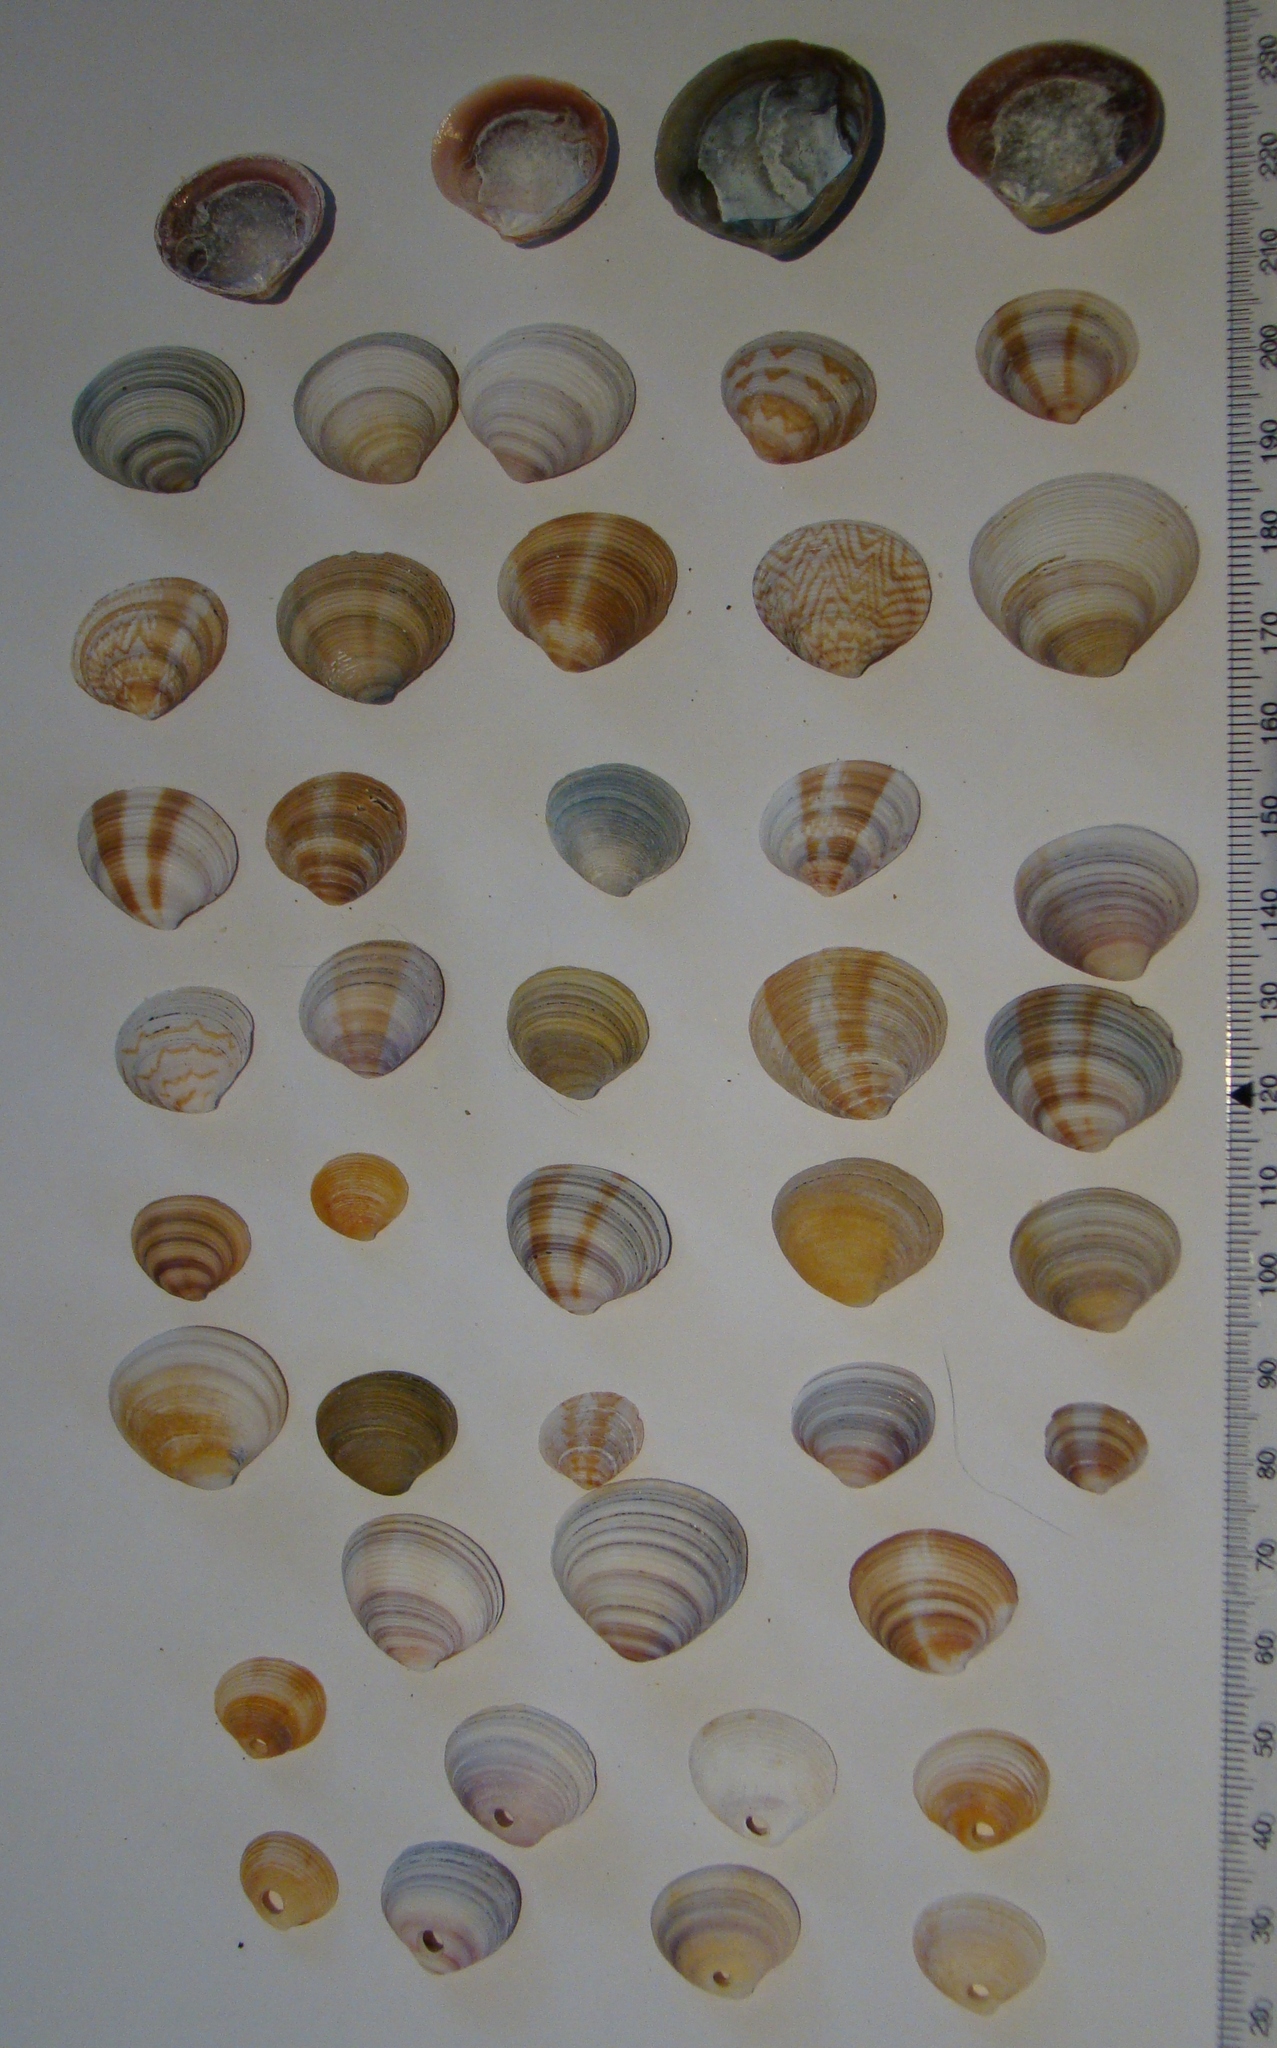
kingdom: Animalia
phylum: Mollusca
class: Bivalvia
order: Venerida
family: Veneridae
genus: Tawera
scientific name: Tawera spissa
